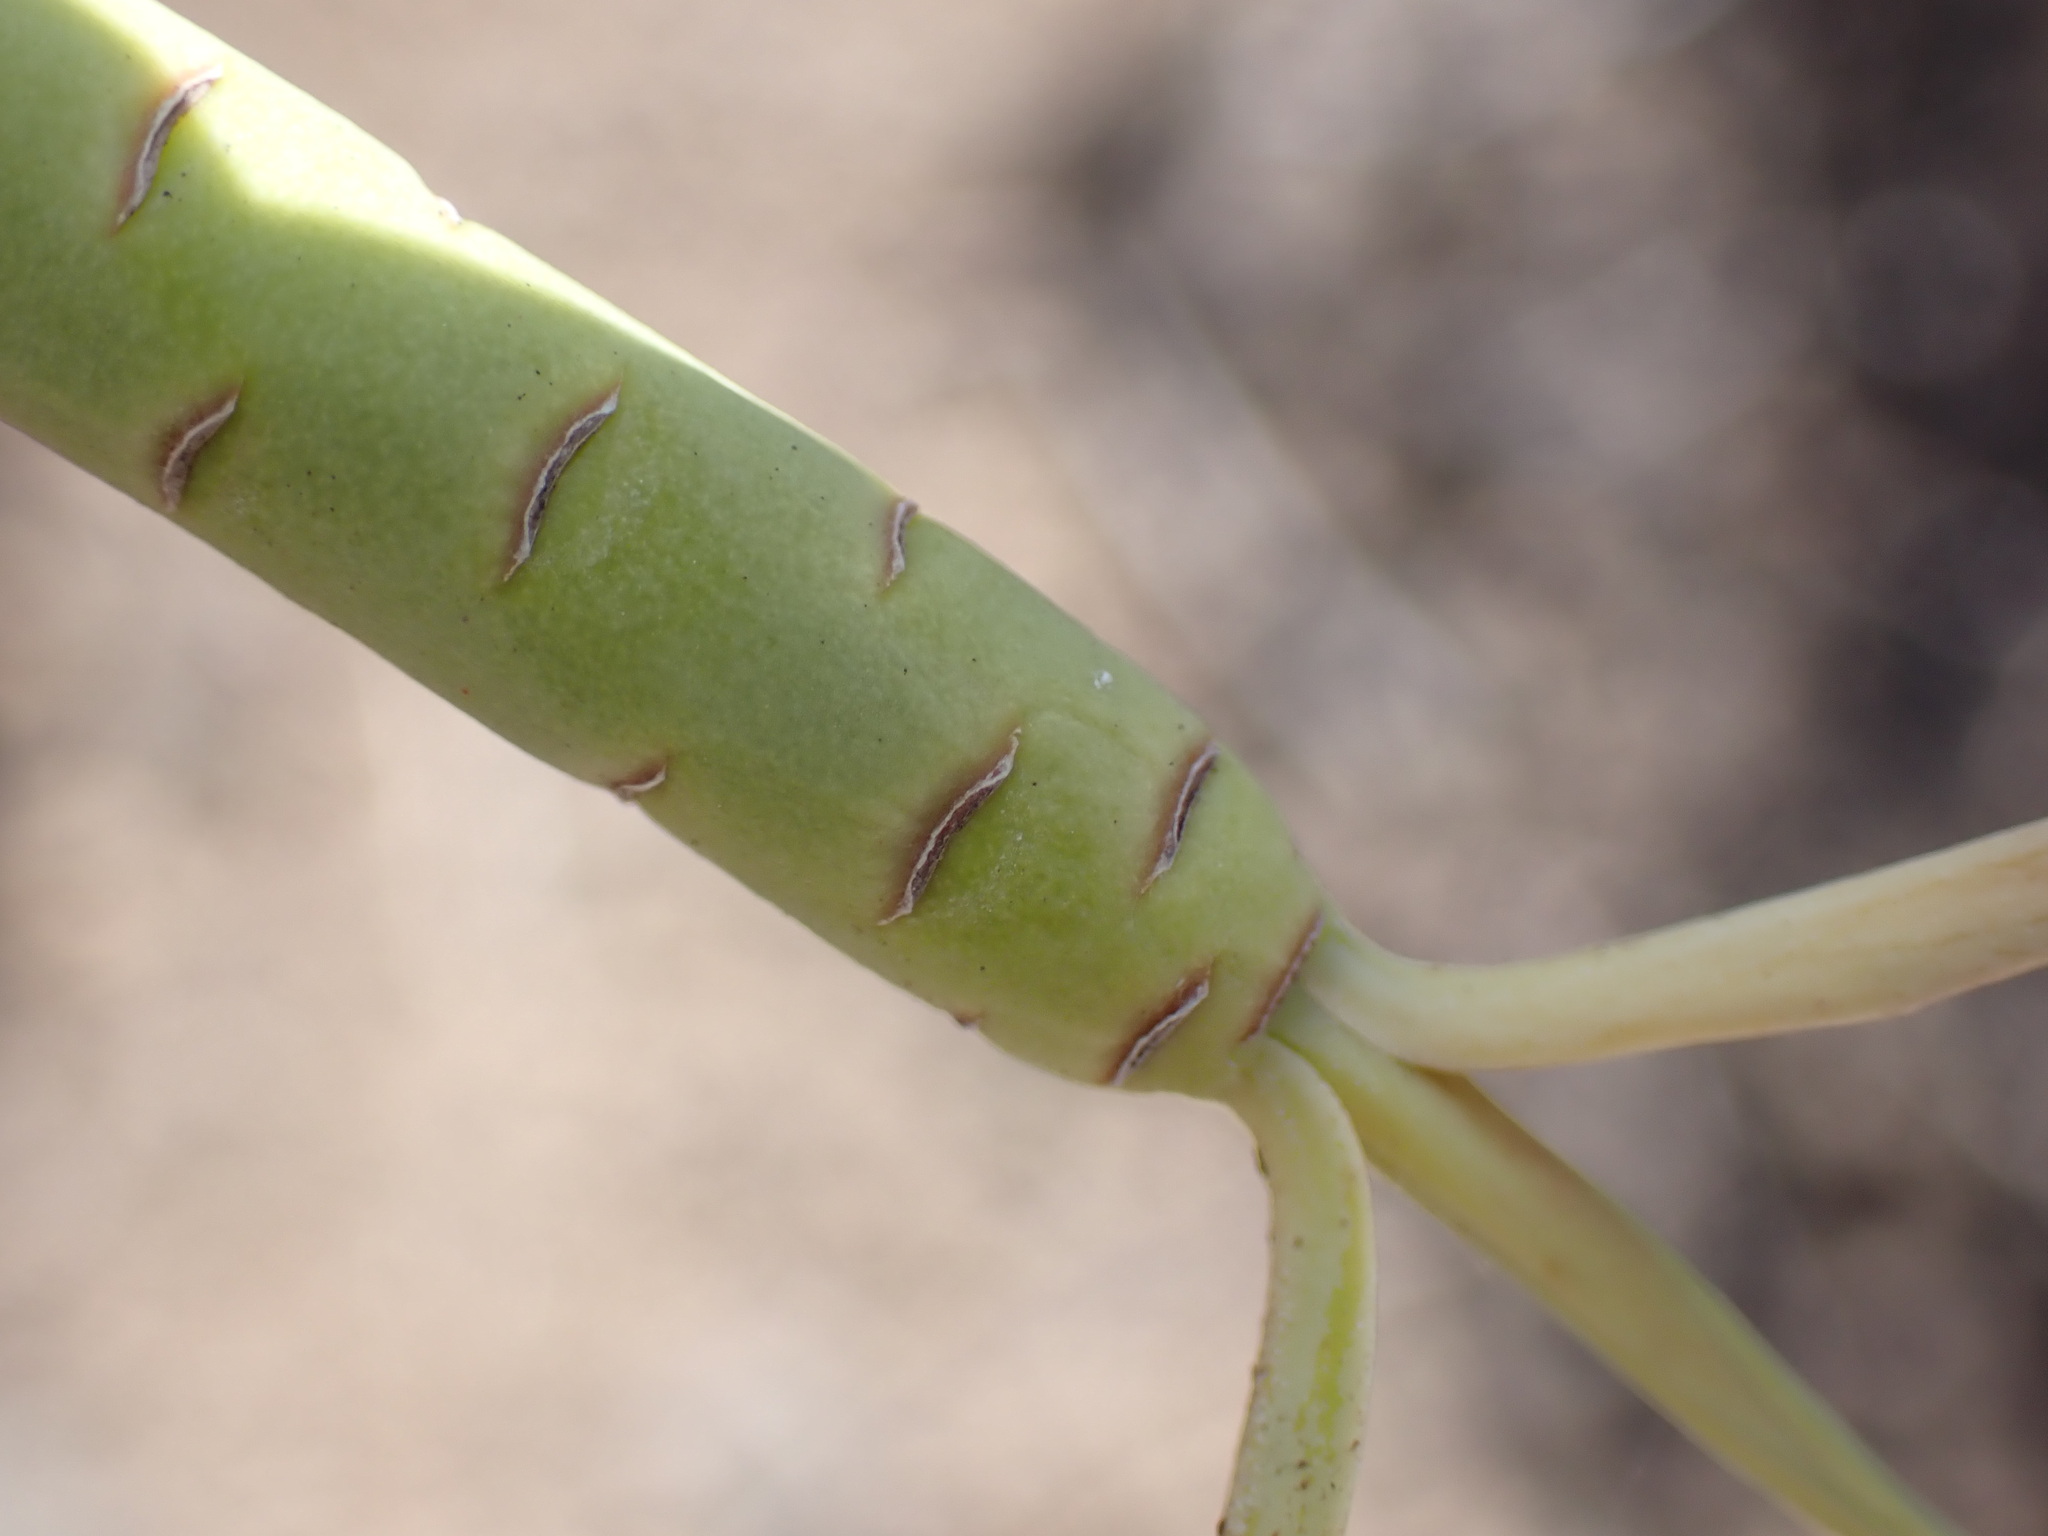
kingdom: Plantae
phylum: Tracheophyta
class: Magnoliopsida
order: Malpighiales
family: Euphorbiaceae
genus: Euphorbia
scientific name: Euphorbia lamarckii
